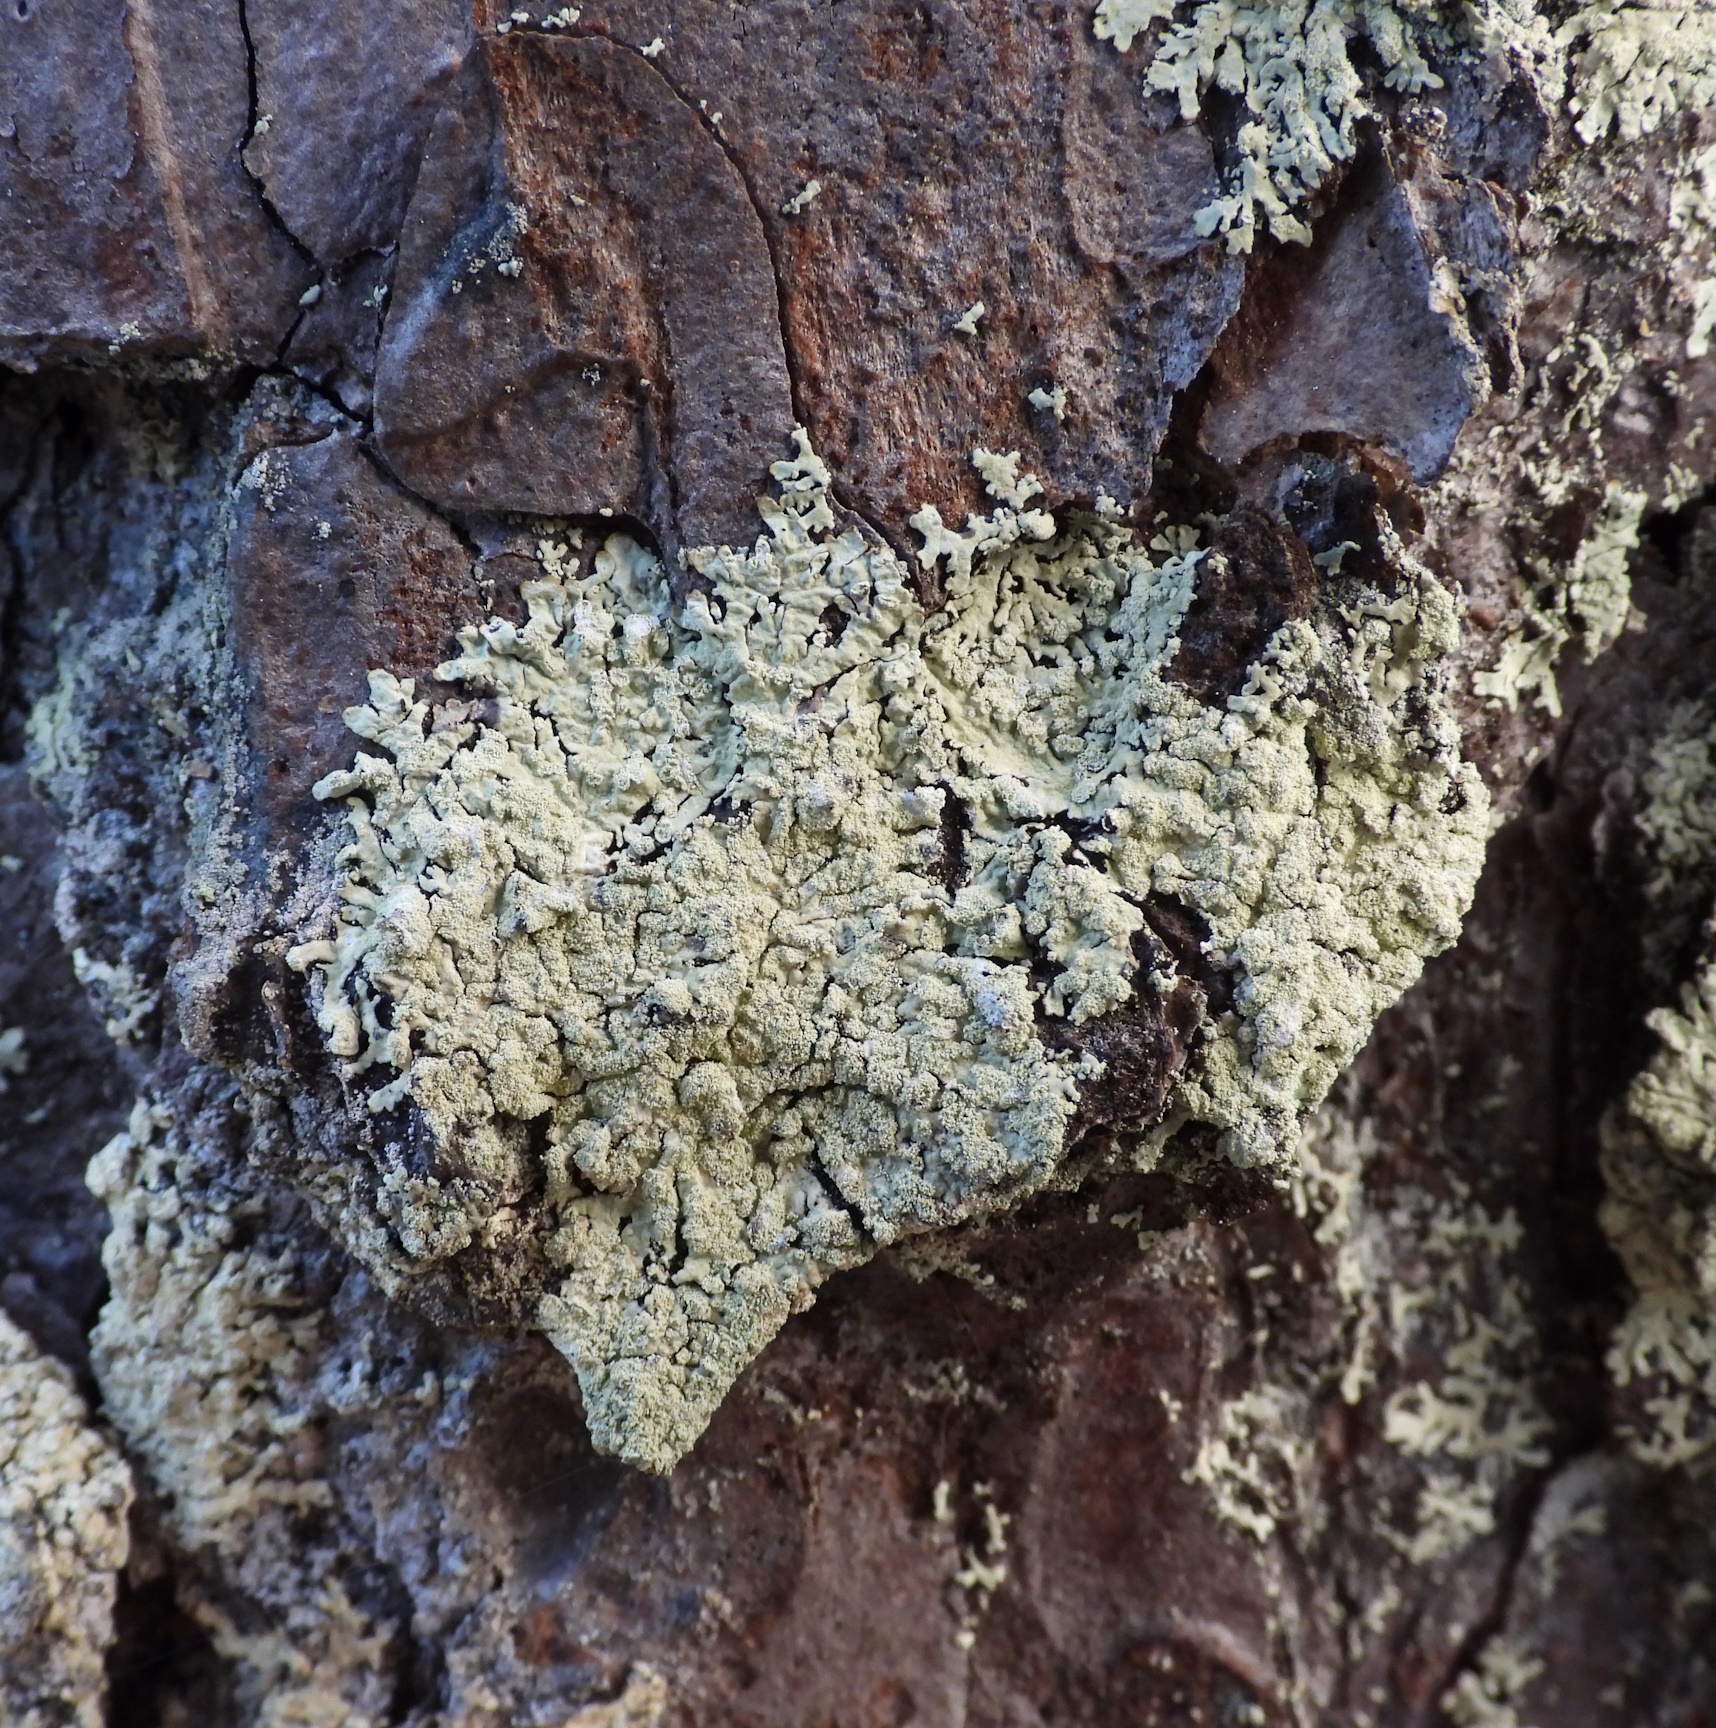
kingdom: Fungi
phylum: Ascomycota
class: Lecanoromycetes
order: Lecanorales
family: Parmeliaceae
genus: Parmeliopsis
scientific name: Parmeliopsis ambigua
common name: Green starburst lichen
